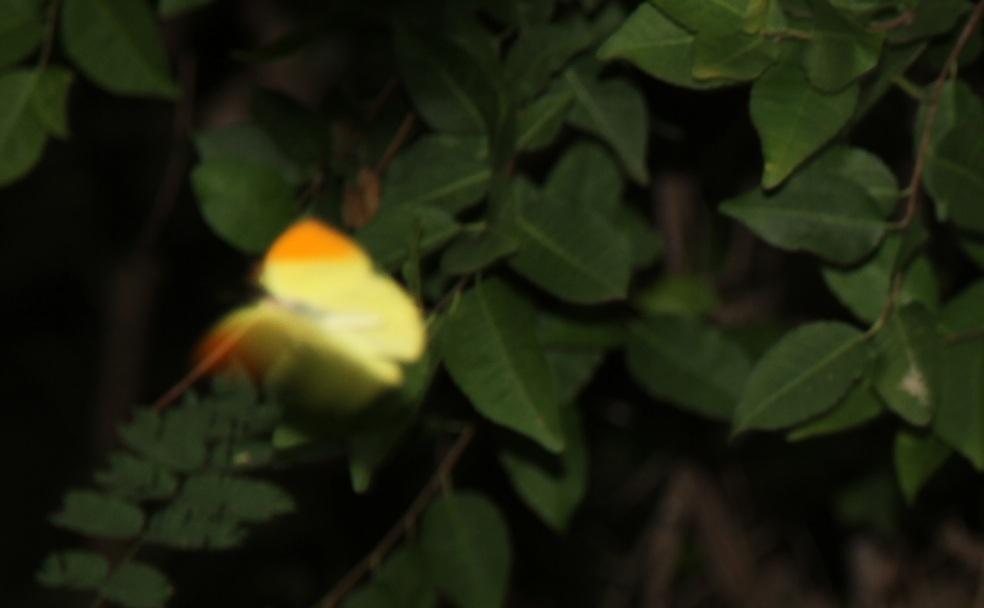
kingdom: Animalia
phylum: Arthropoda
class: Insecta
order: Lepidoptera
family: Pieridae
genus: Eronia
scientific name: Eronia leda
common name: Autumn leaf vagrant
